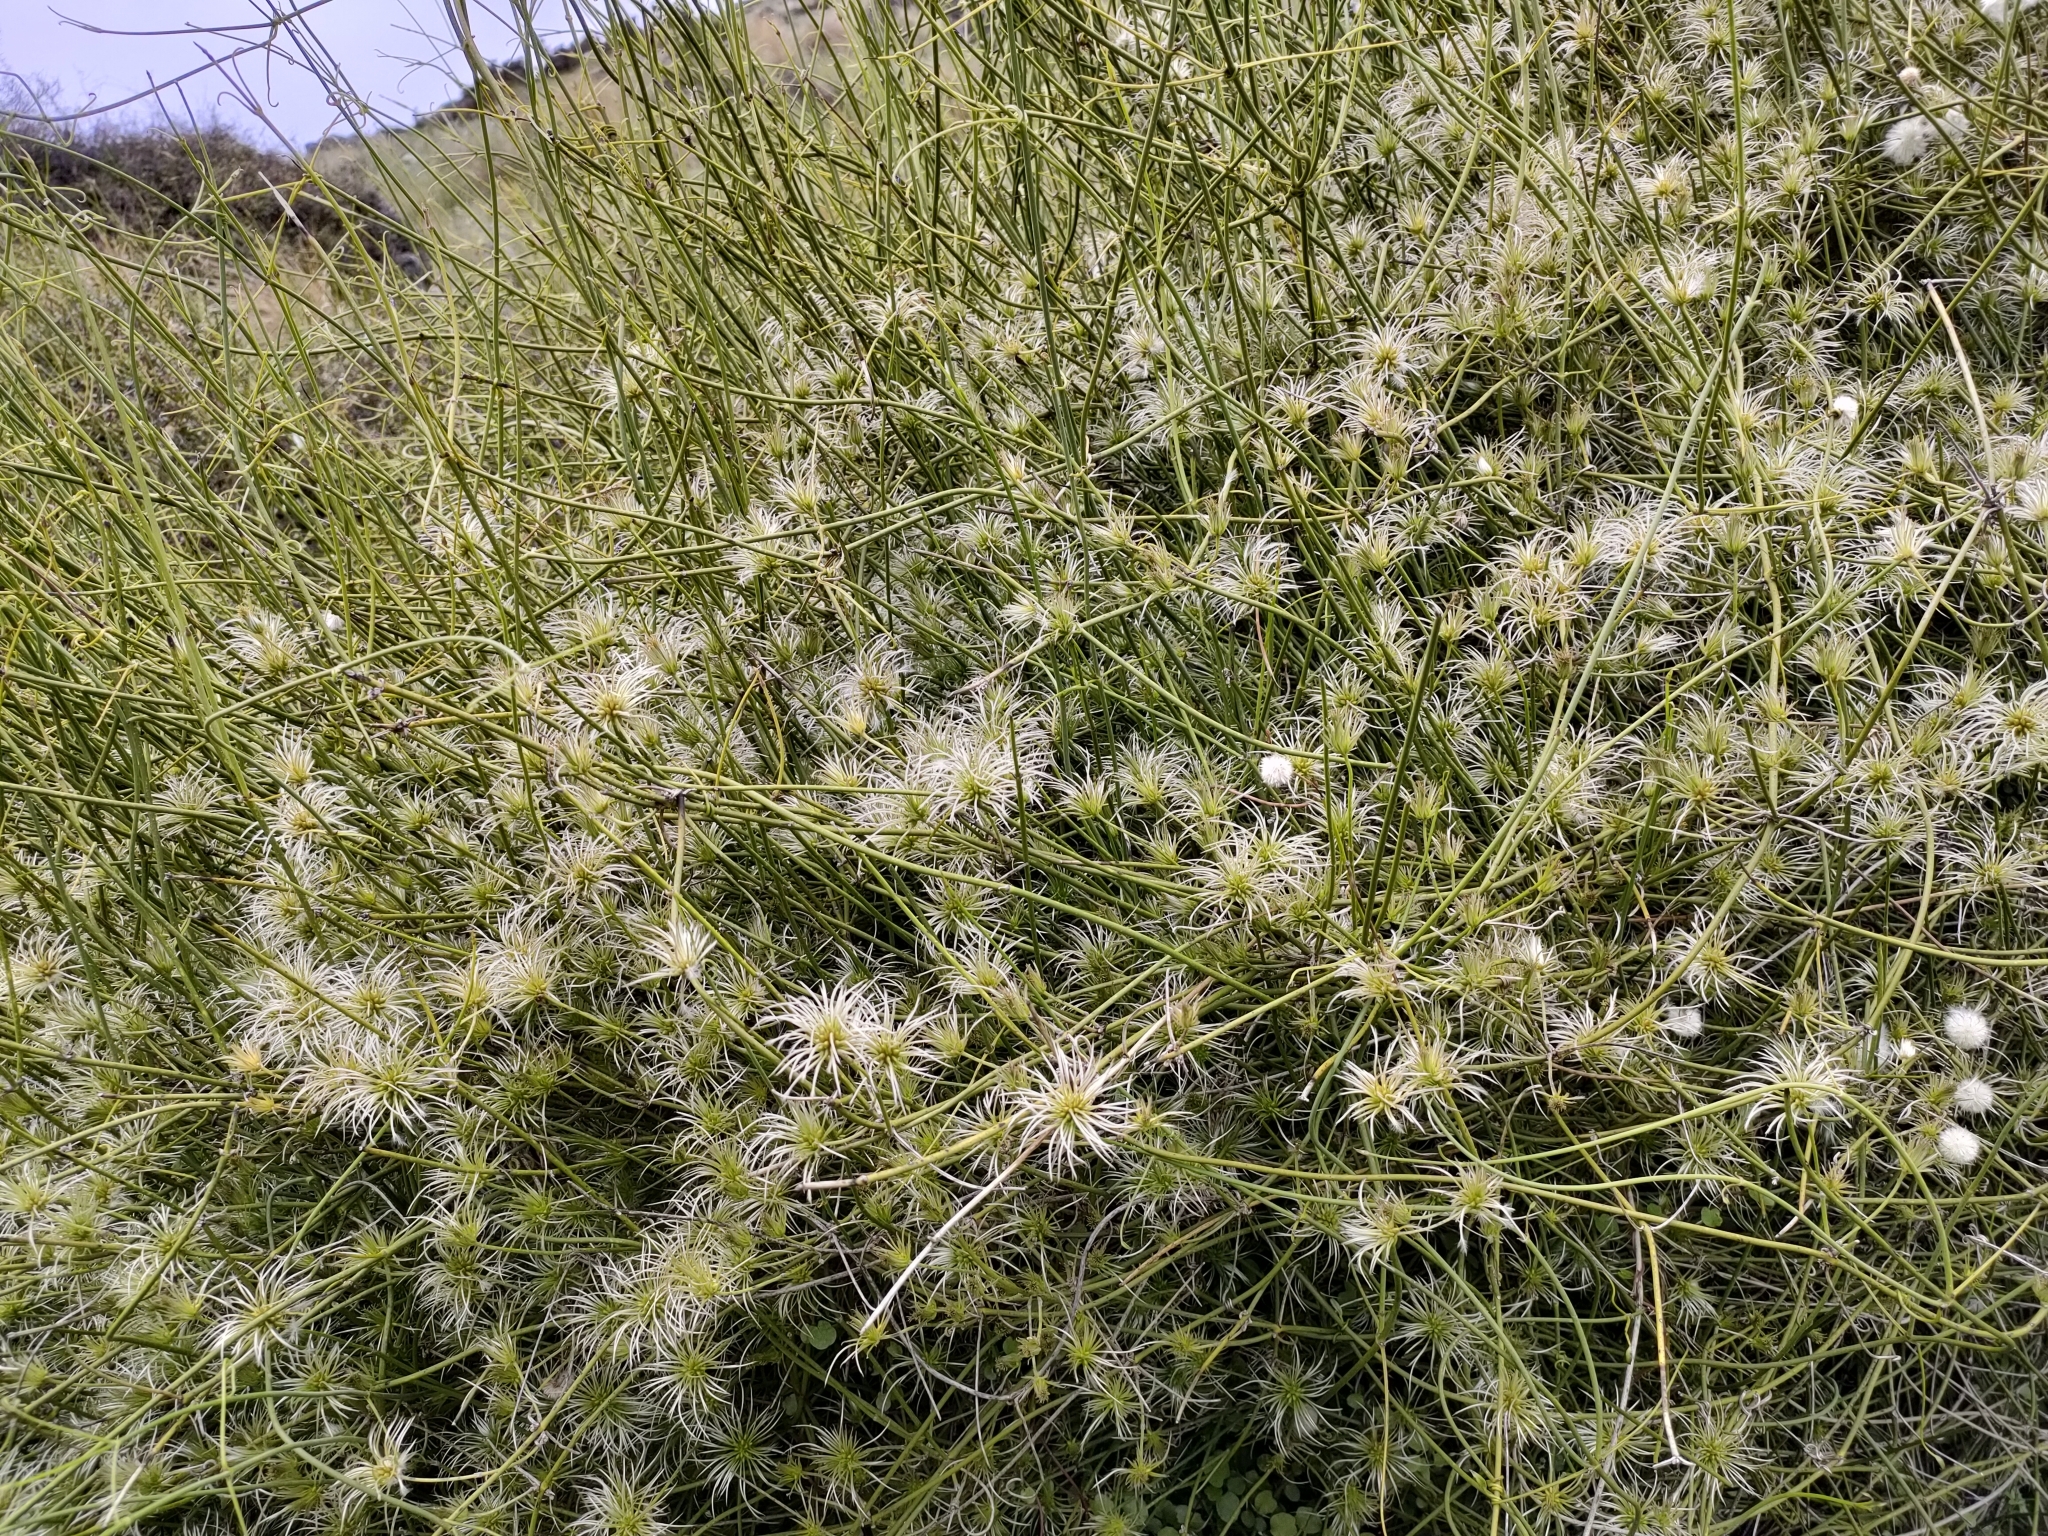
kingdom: Plantae
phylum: Tracheophyta
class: Magnoliopsida
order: Ranunculales
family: Ranunculaceae
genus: Clematis
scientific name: Clematis afoliata
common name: Rush-stem clematis
